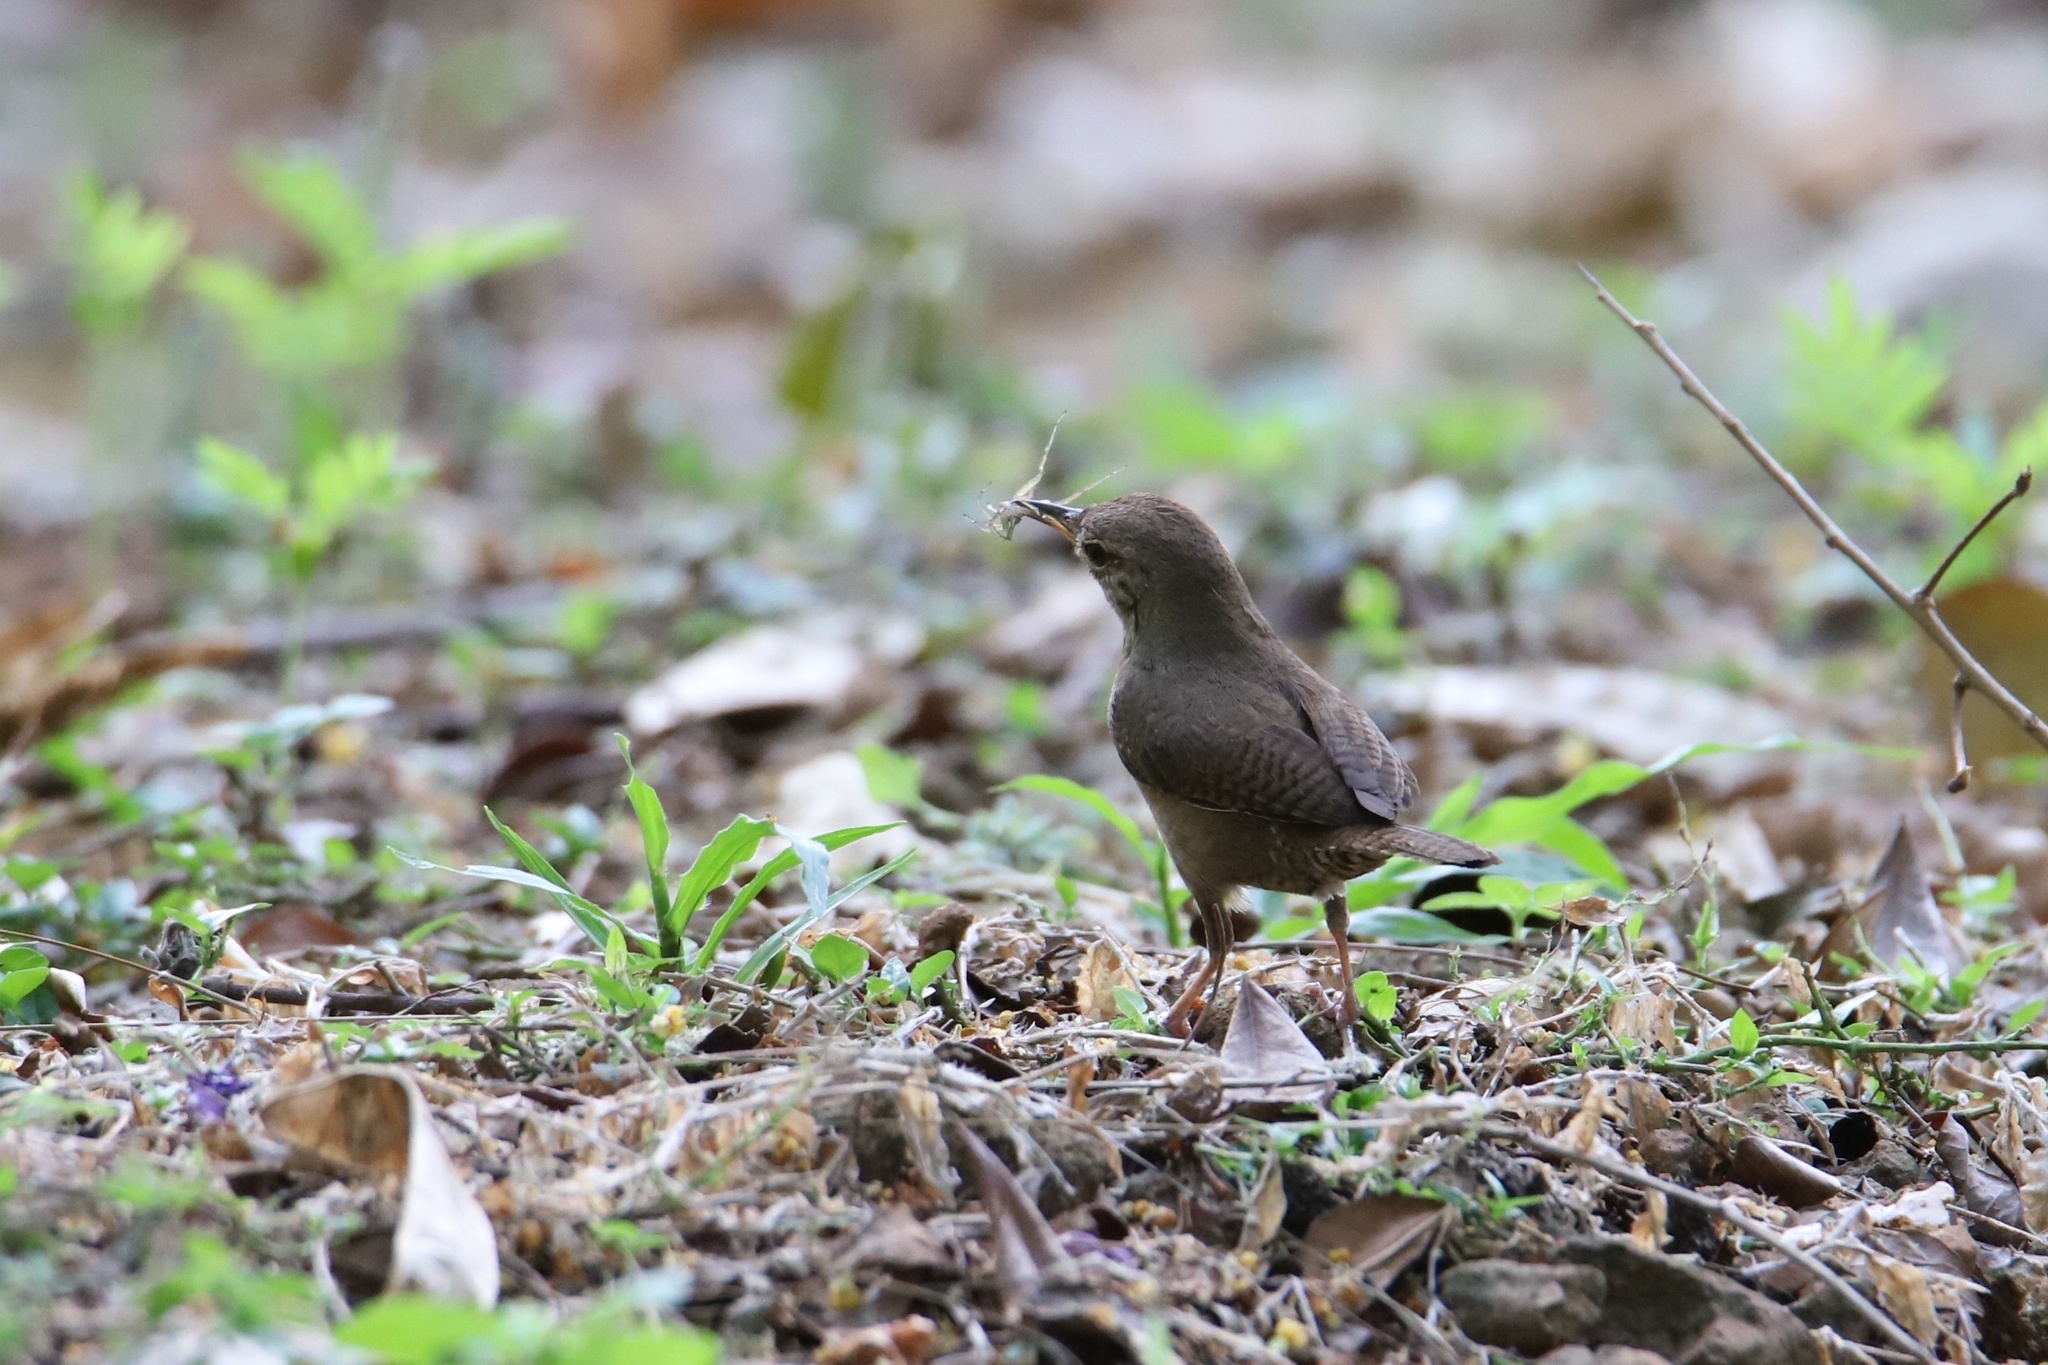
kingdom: Animalia
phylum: Chordata
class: Aves
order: Passeriformes
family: Troglodytidae
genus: Troglodytes
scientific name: Troglodytes aedon
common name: House wren
